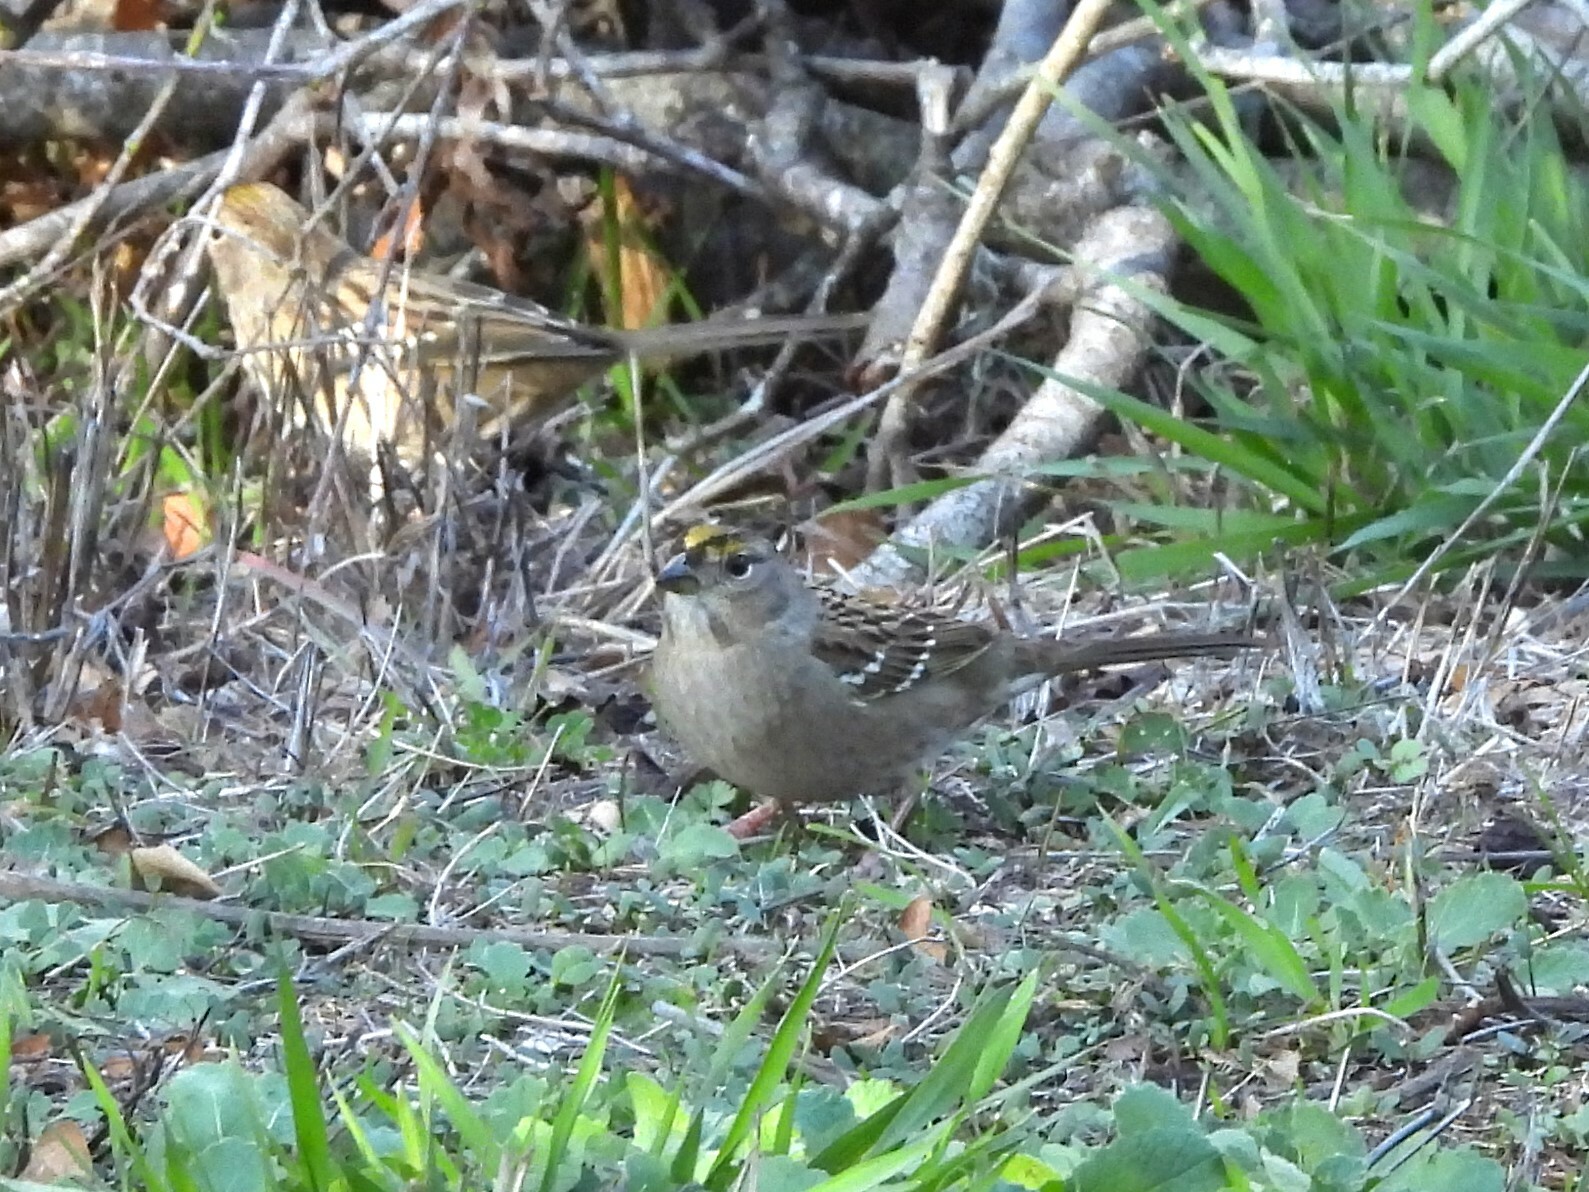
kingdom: Animalia
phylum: Chordata
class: Aves
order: Passeriformes
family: Passerellidae
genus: Zonotrichia
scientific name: Zonotrichia atricapilla
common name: Golden-crowned sparrow
